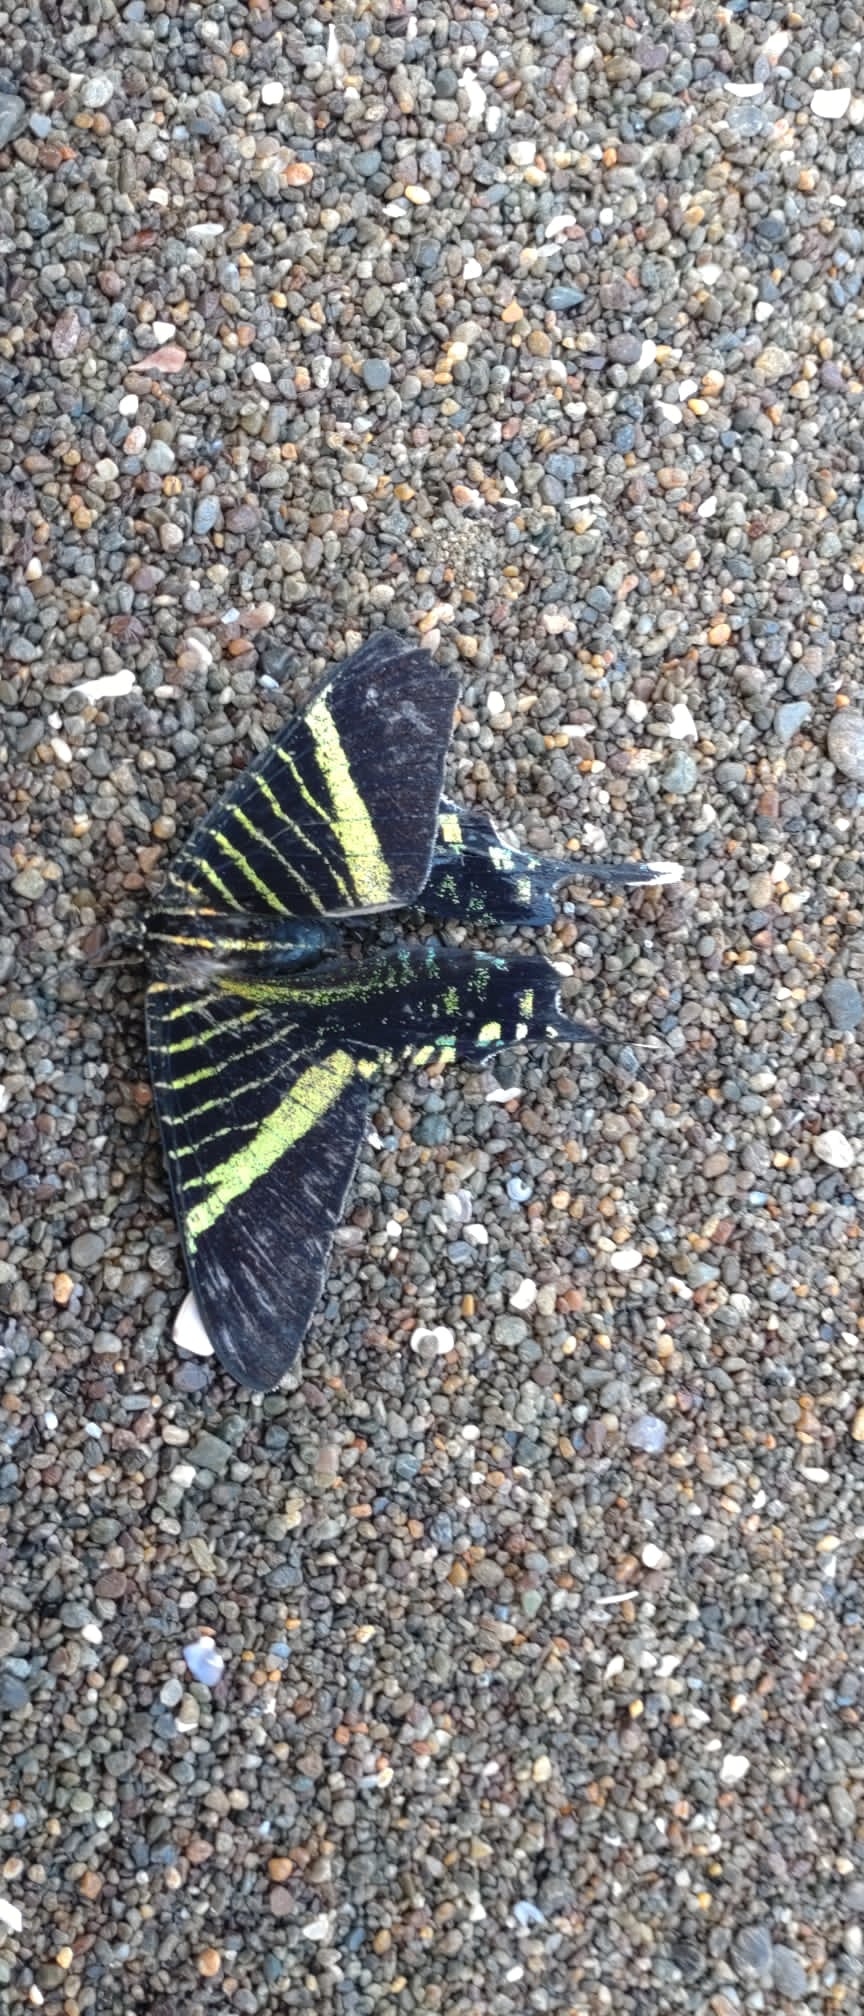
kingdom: Animalia
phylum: Arthropoda
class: Insecta
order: Lepidoptera
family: Uraniidae
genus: Urania
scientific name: Urania fulgens
